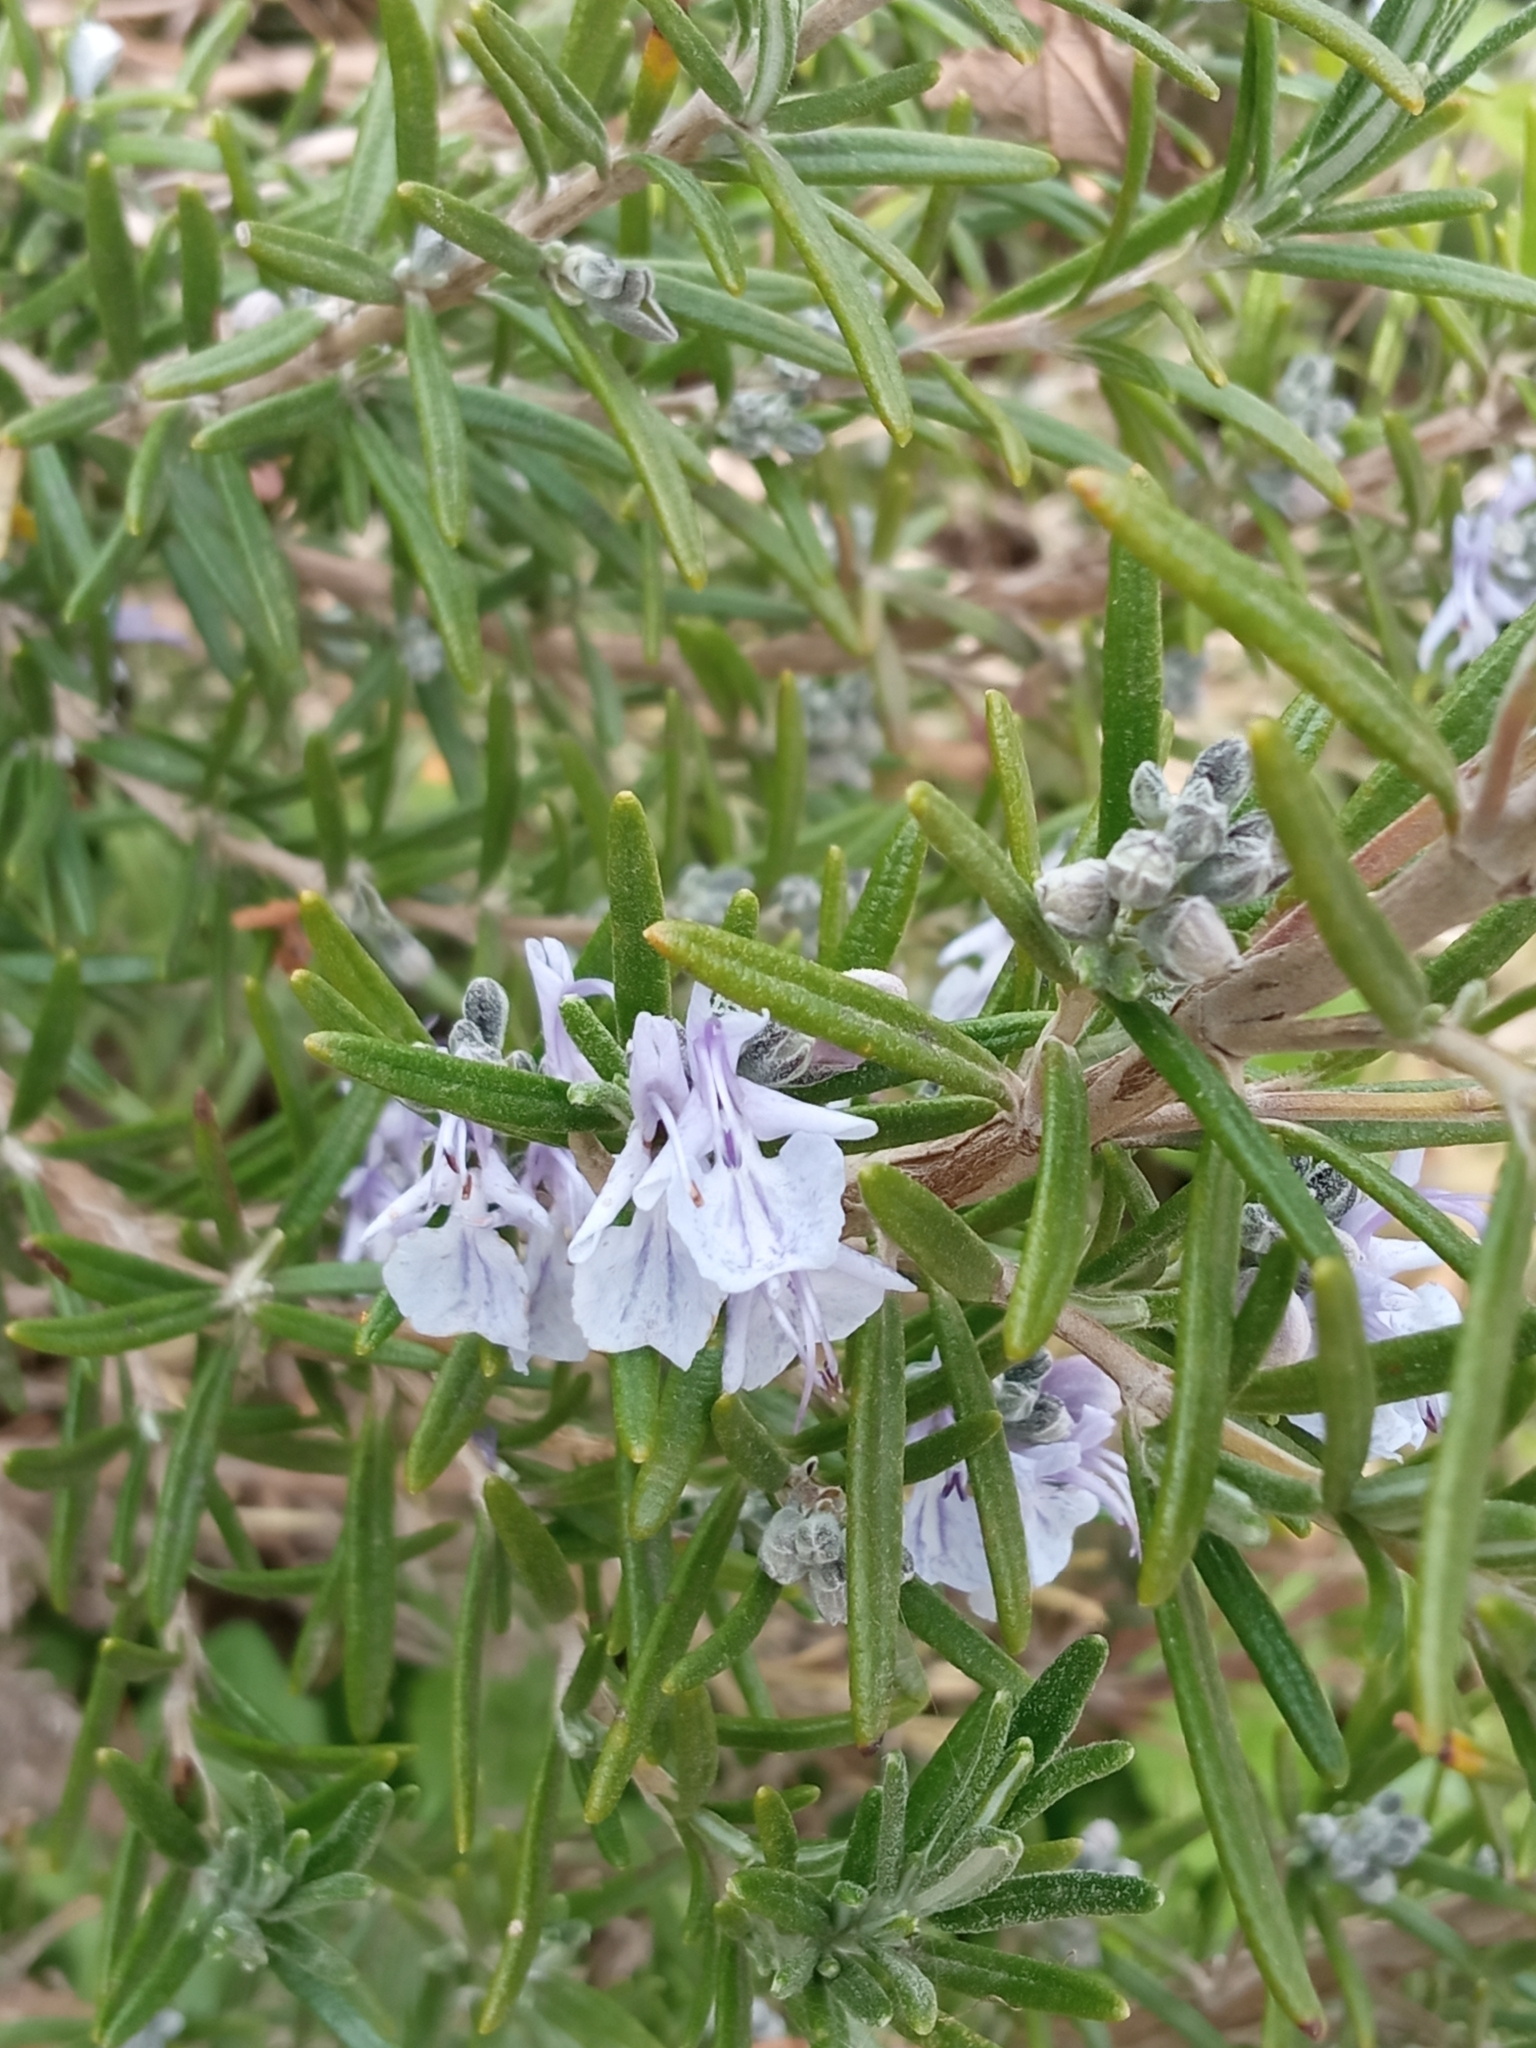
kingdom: Plantae
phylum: Tracheophyta
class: Magnoliopsida
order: Lamiales
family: Lamiaceae
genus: Salvia
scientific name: Salvia rosmarinus
